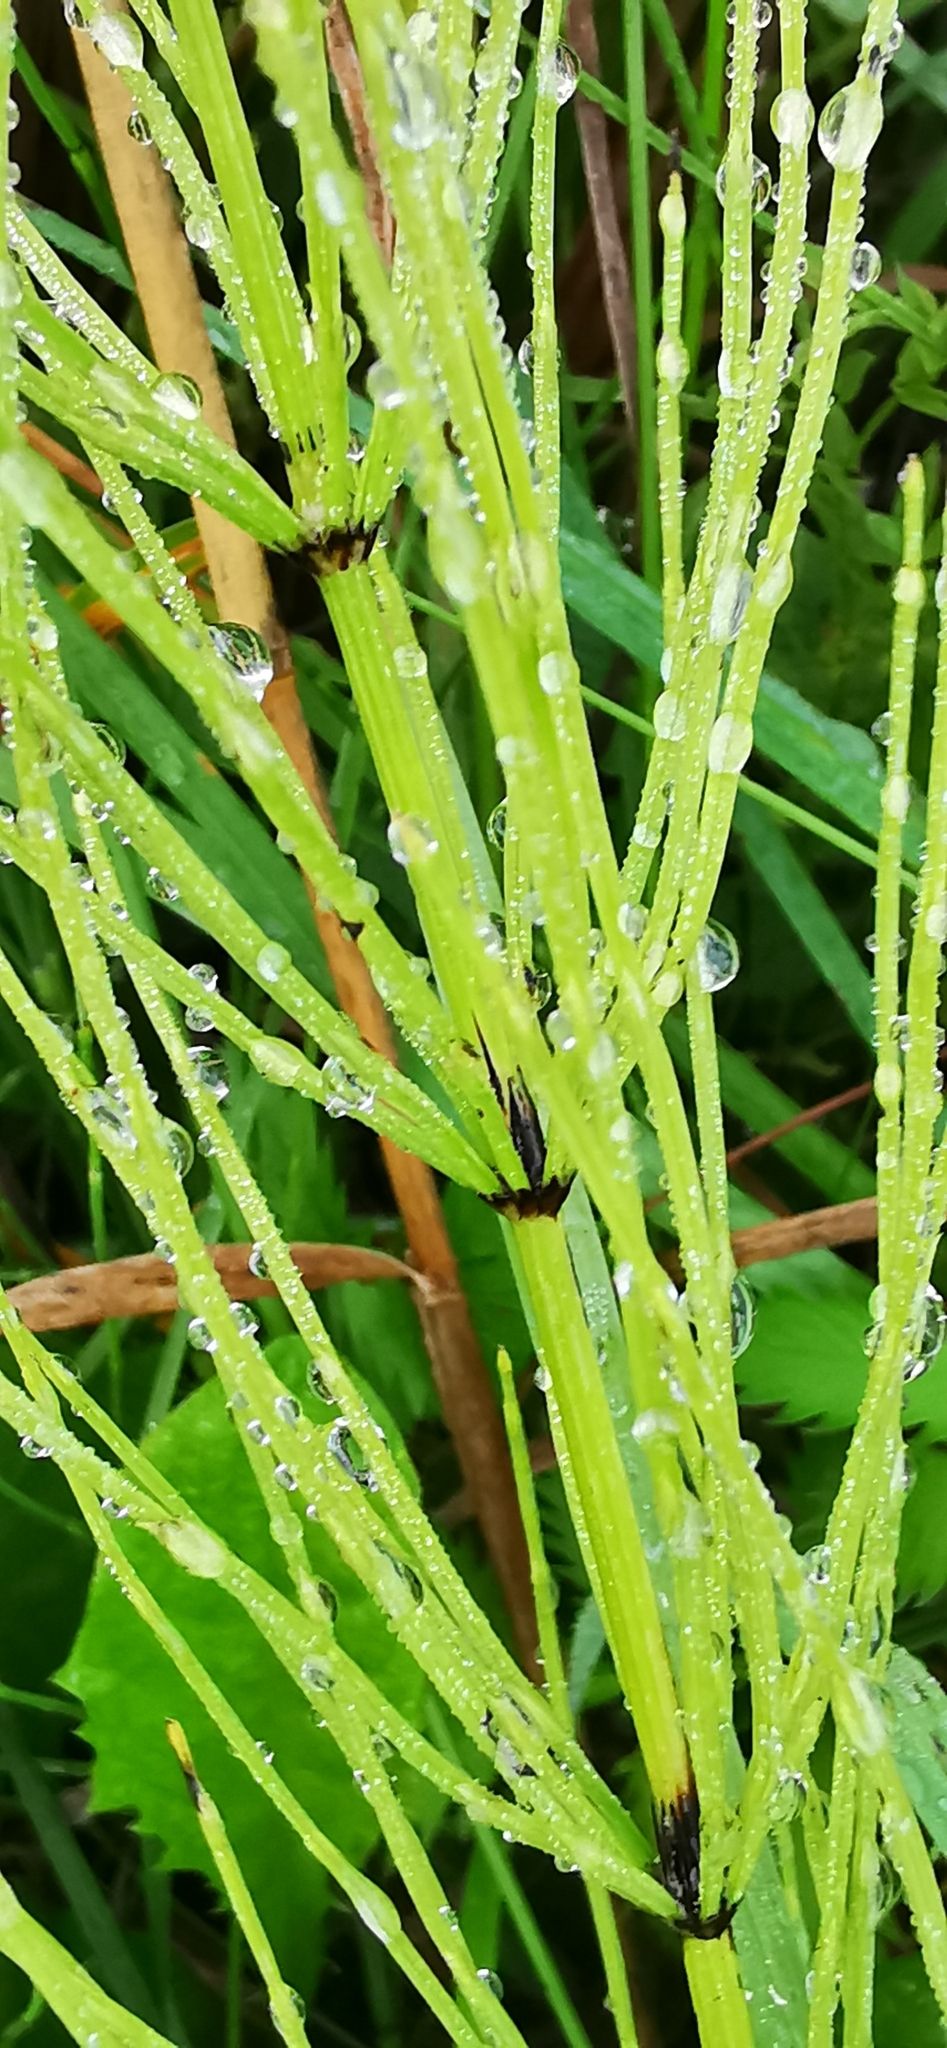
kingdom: Plantae
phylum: Tracheophyta
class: Polypodiopsida
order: Equisetales
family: Equisetaceae
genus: Equisetum
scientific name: Equisetum arvense
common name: Field horsetail
